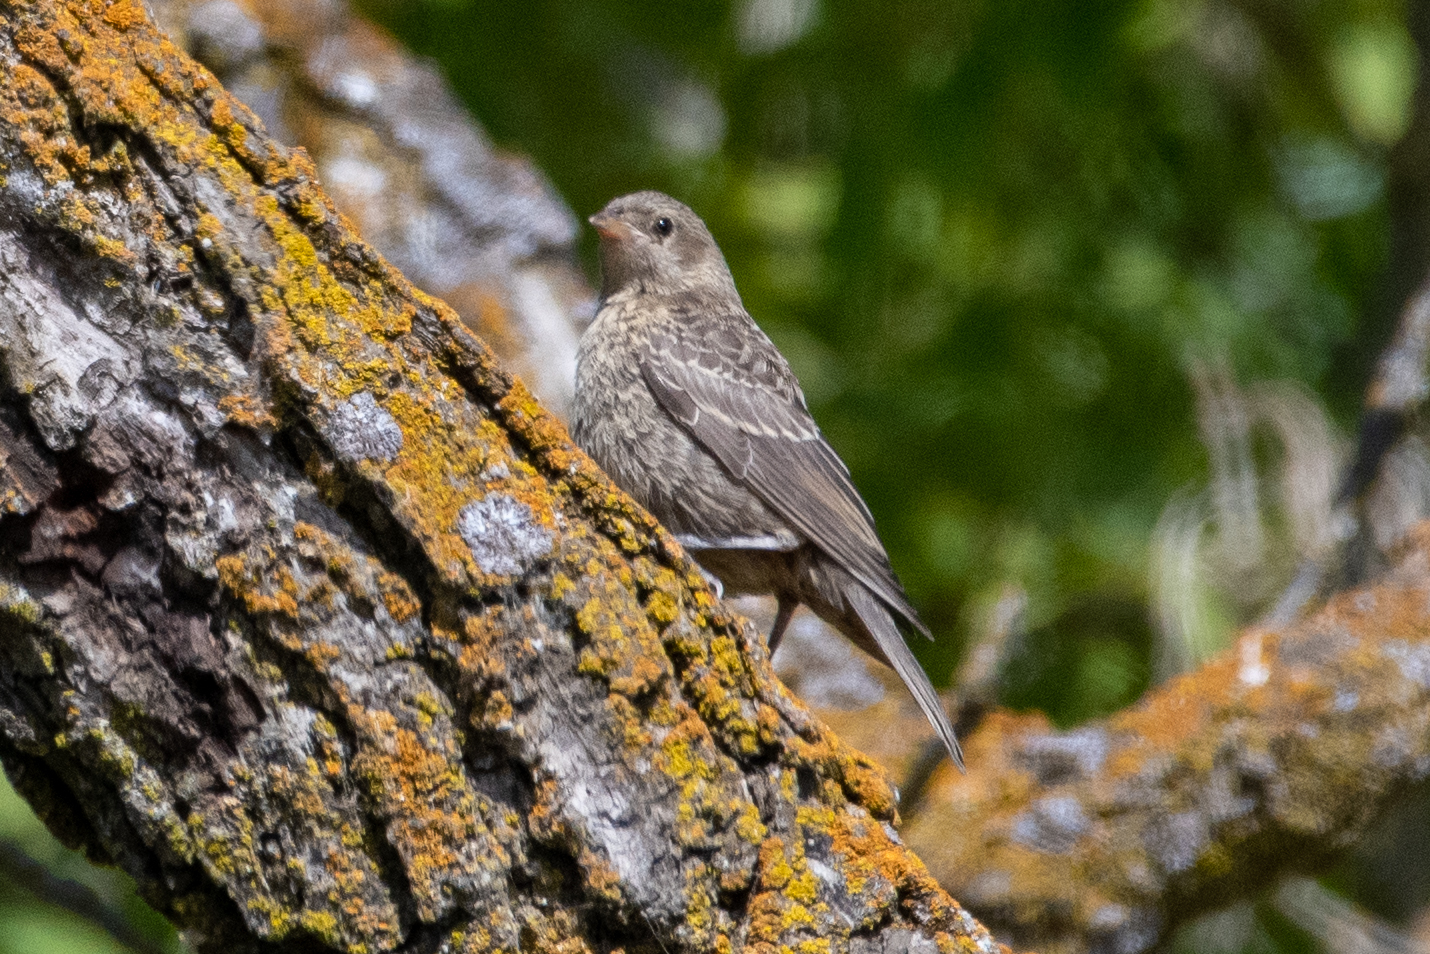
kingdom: Animalia
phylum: Chordata
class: Aves
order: Passeriformes
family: Icteridae
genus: Molothrus
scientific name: Molothrus ater
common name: Brown-headed cowbird
